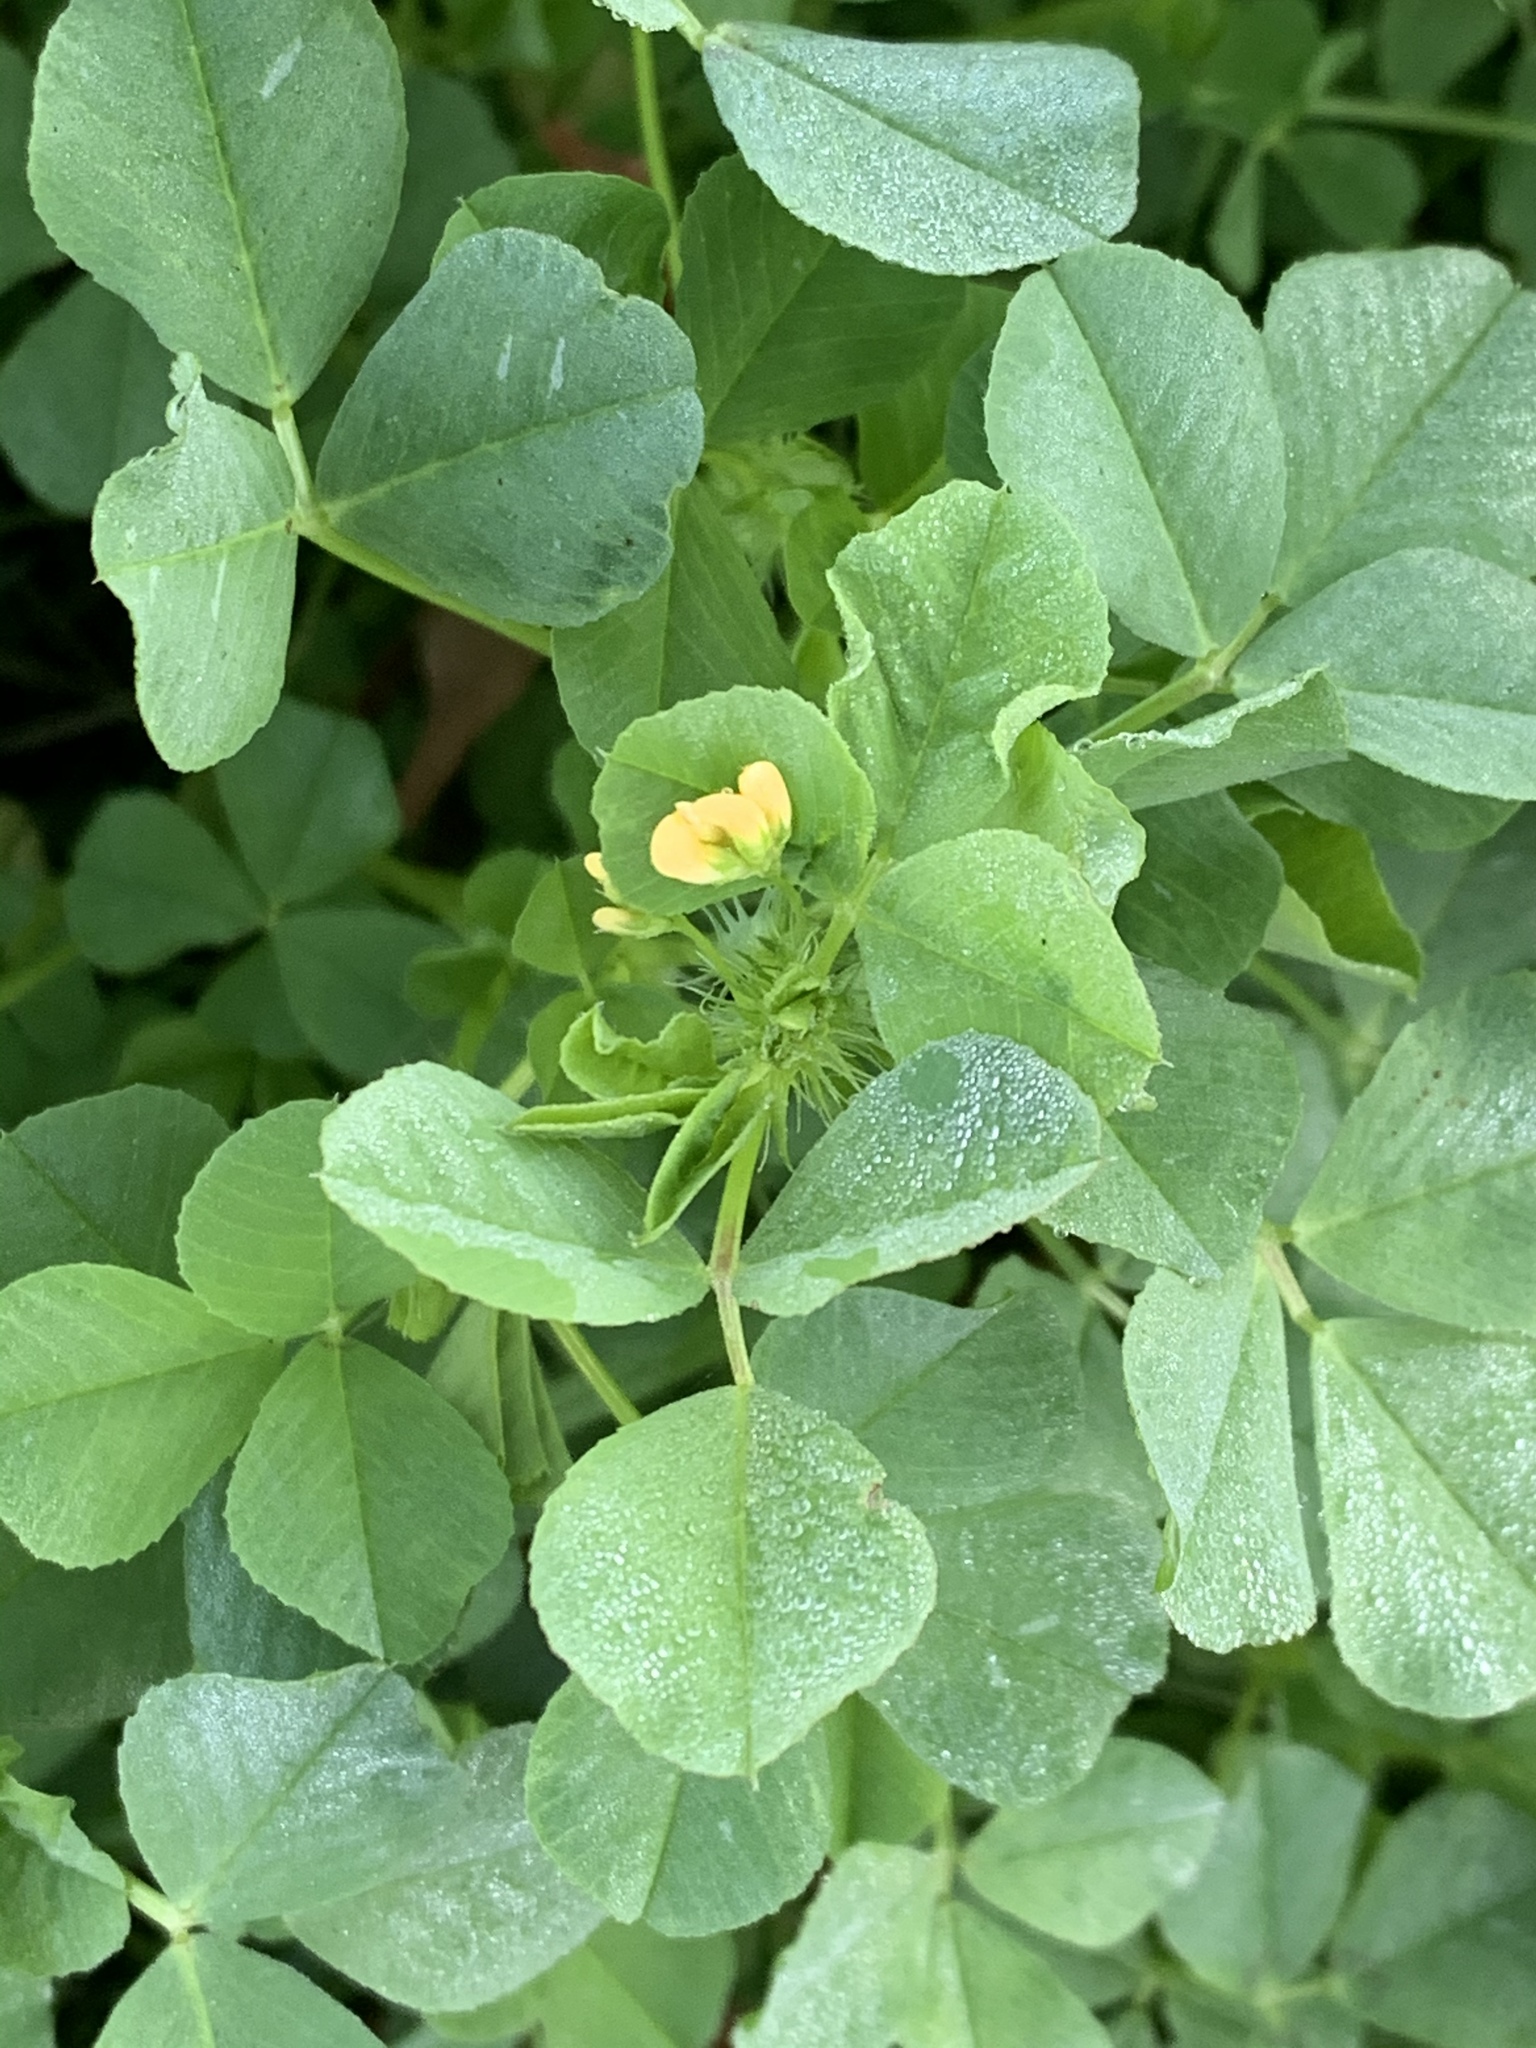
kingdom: Plantae
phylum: Tracheophyta
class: Magnoliopsida
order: Fabales
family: Fabaceae
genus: Medicago
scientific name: Medicago polymorpha
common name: Burclover
